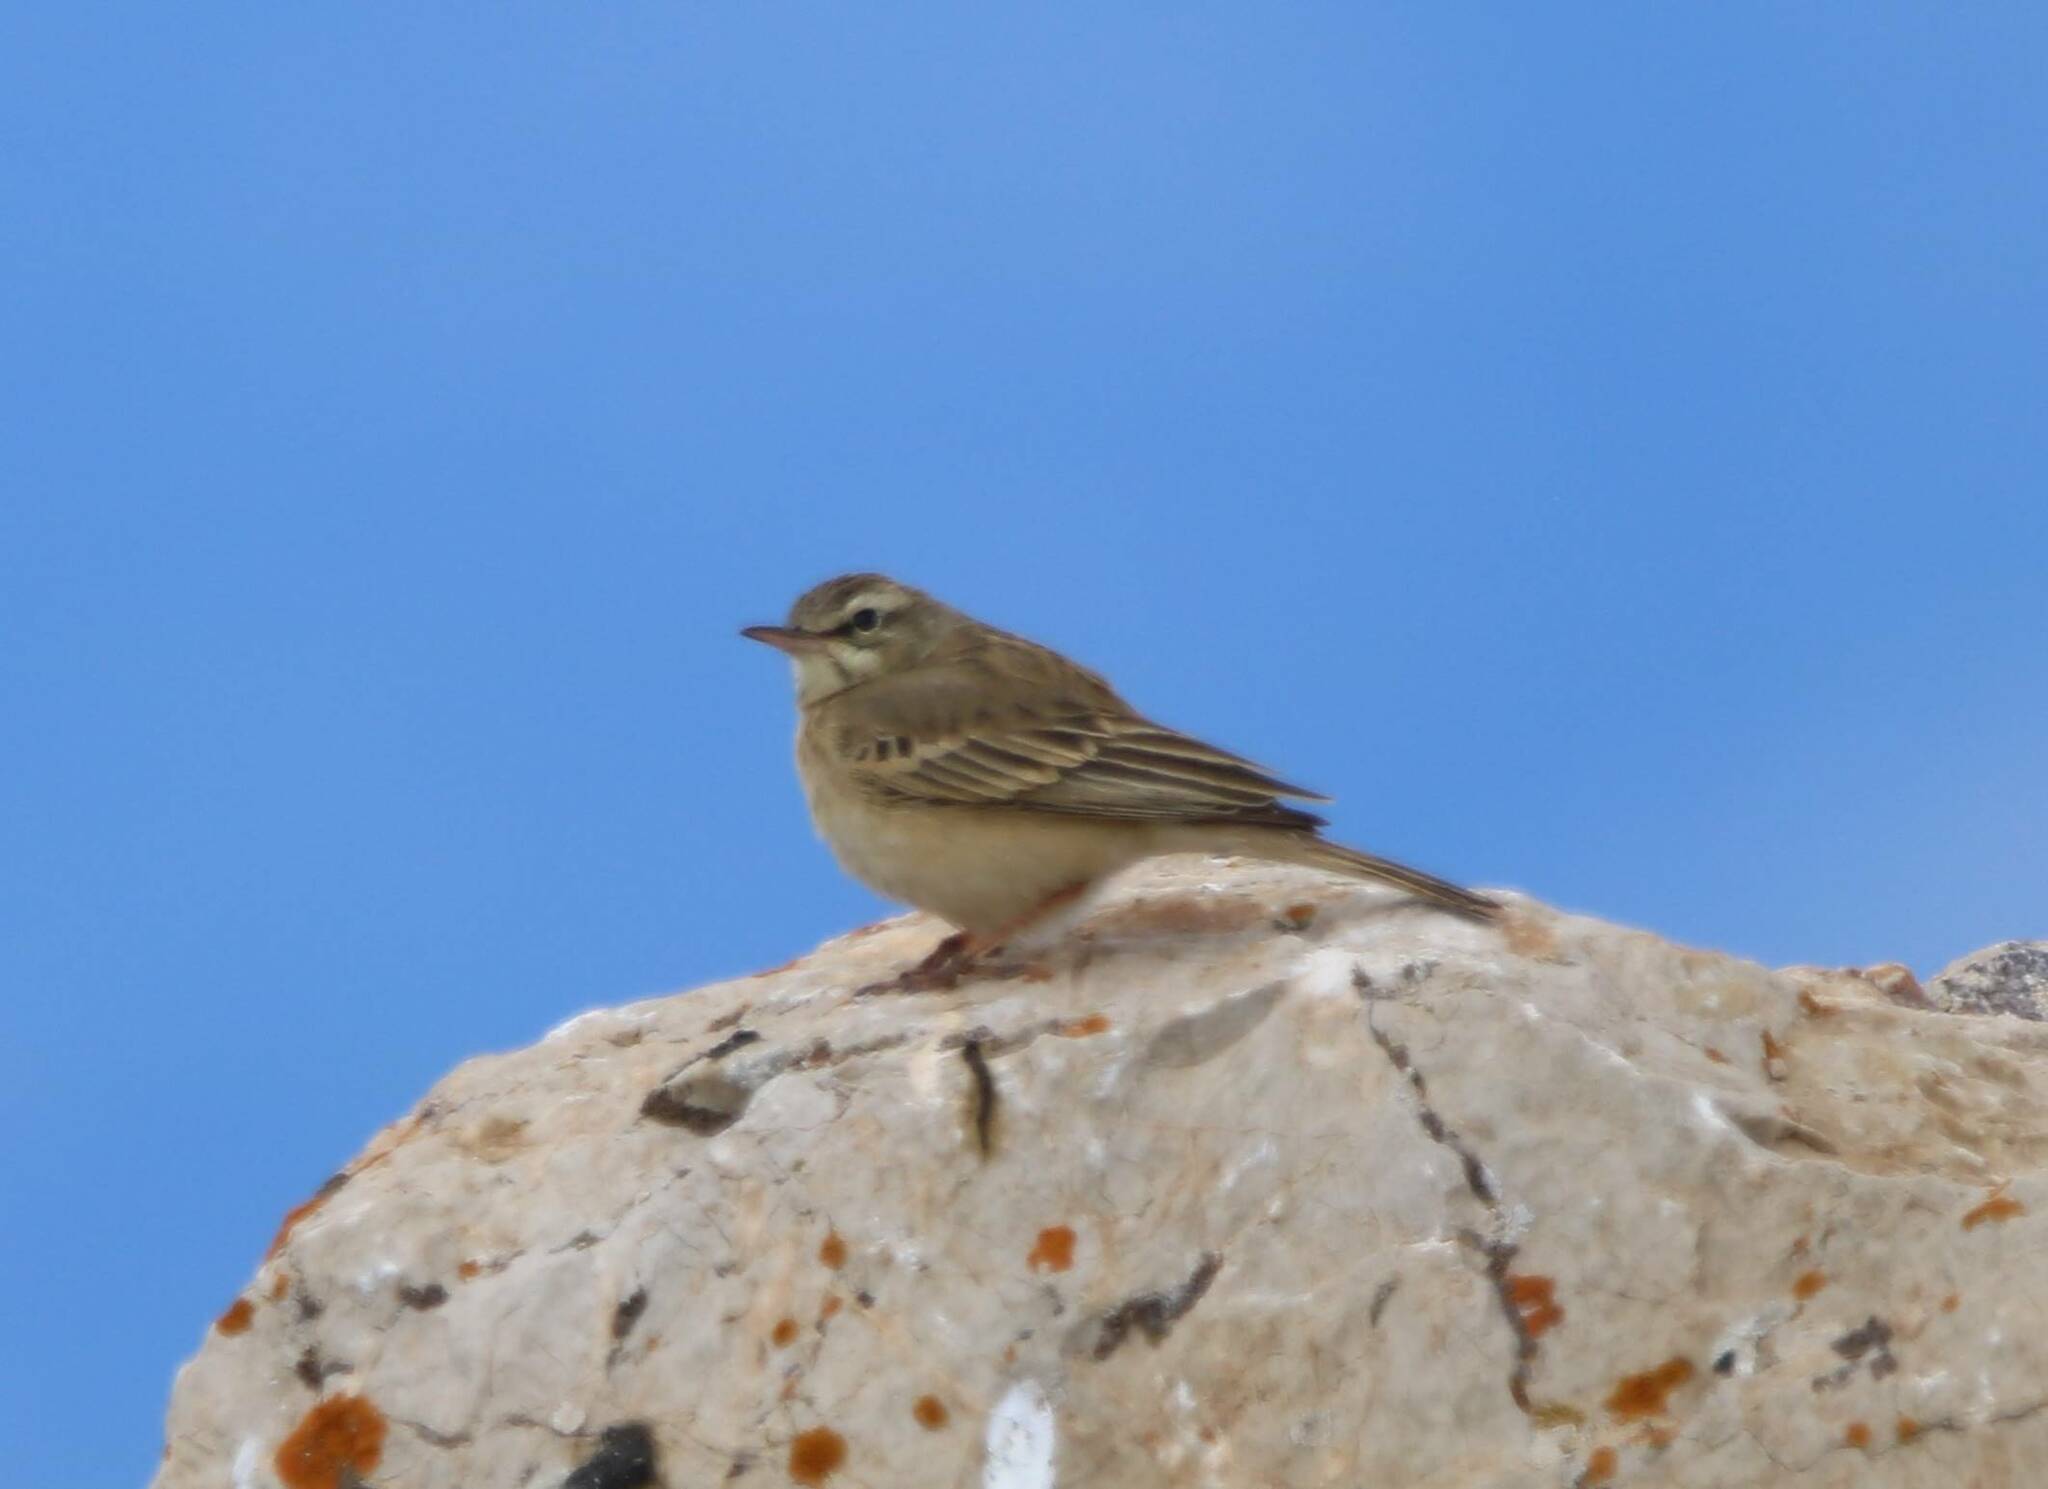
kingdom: Animalia
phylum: Chordata
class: Aves
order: Passeriformes
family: Motacillidae
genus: Anthus
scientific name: Anthus campestris
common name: Tawny pipit
